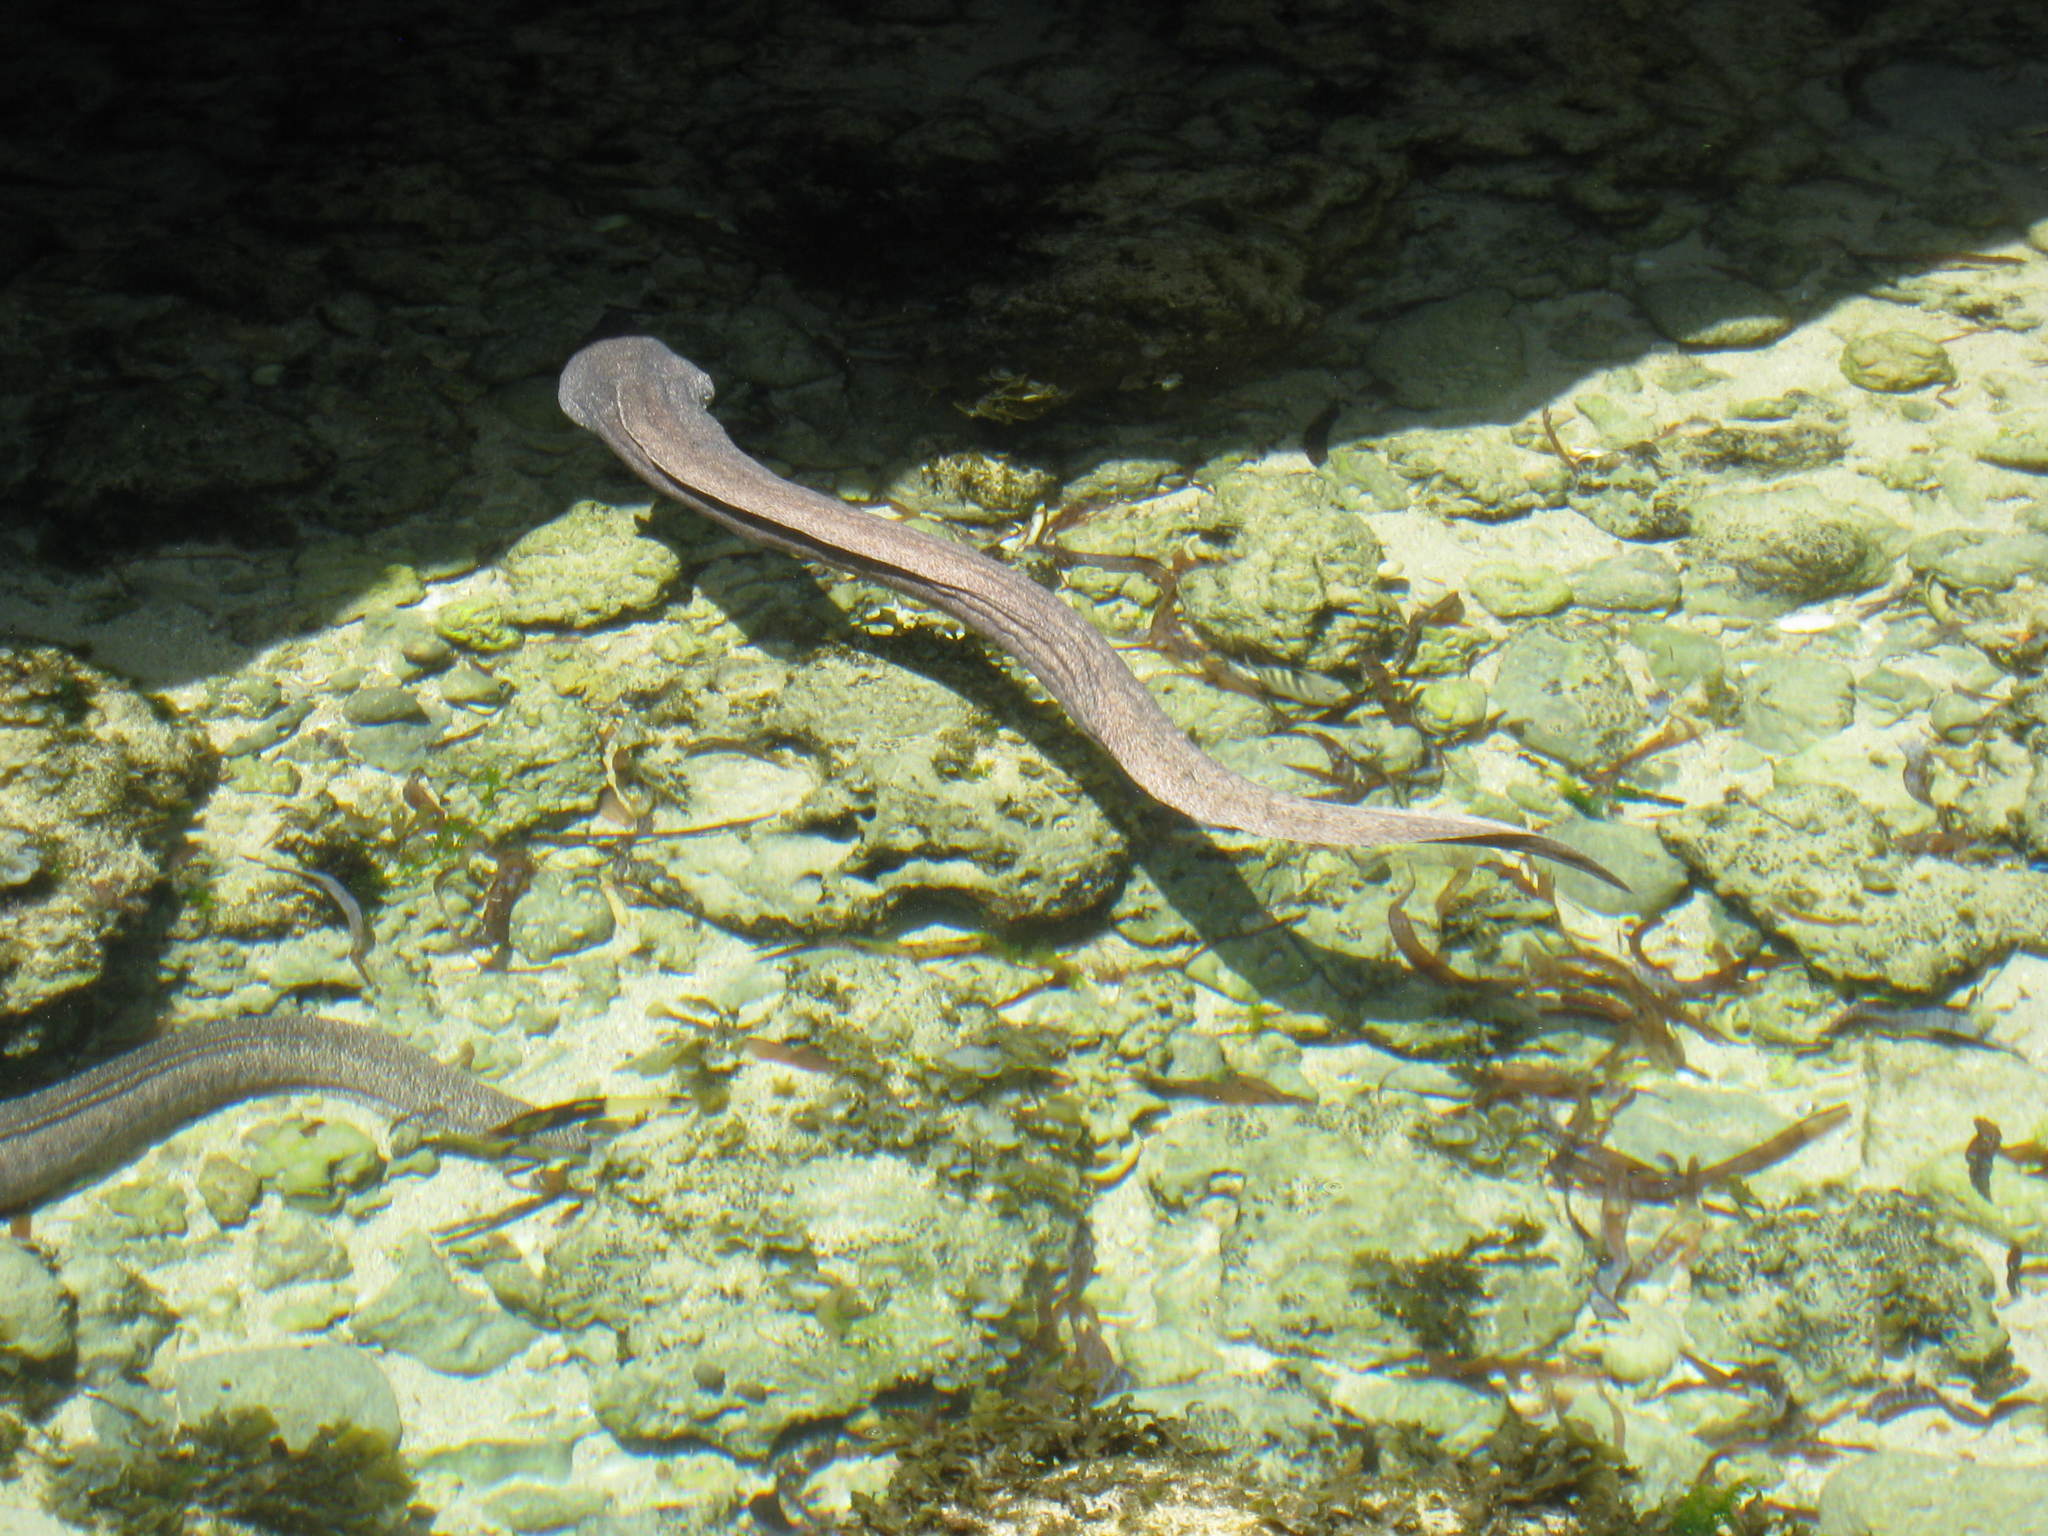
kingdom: Animalia
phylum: Chordata
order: Anguilliformes
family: Muraenidae
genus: Gymnothorax
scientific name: Gymnothorax pictus
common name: Peppered moray
